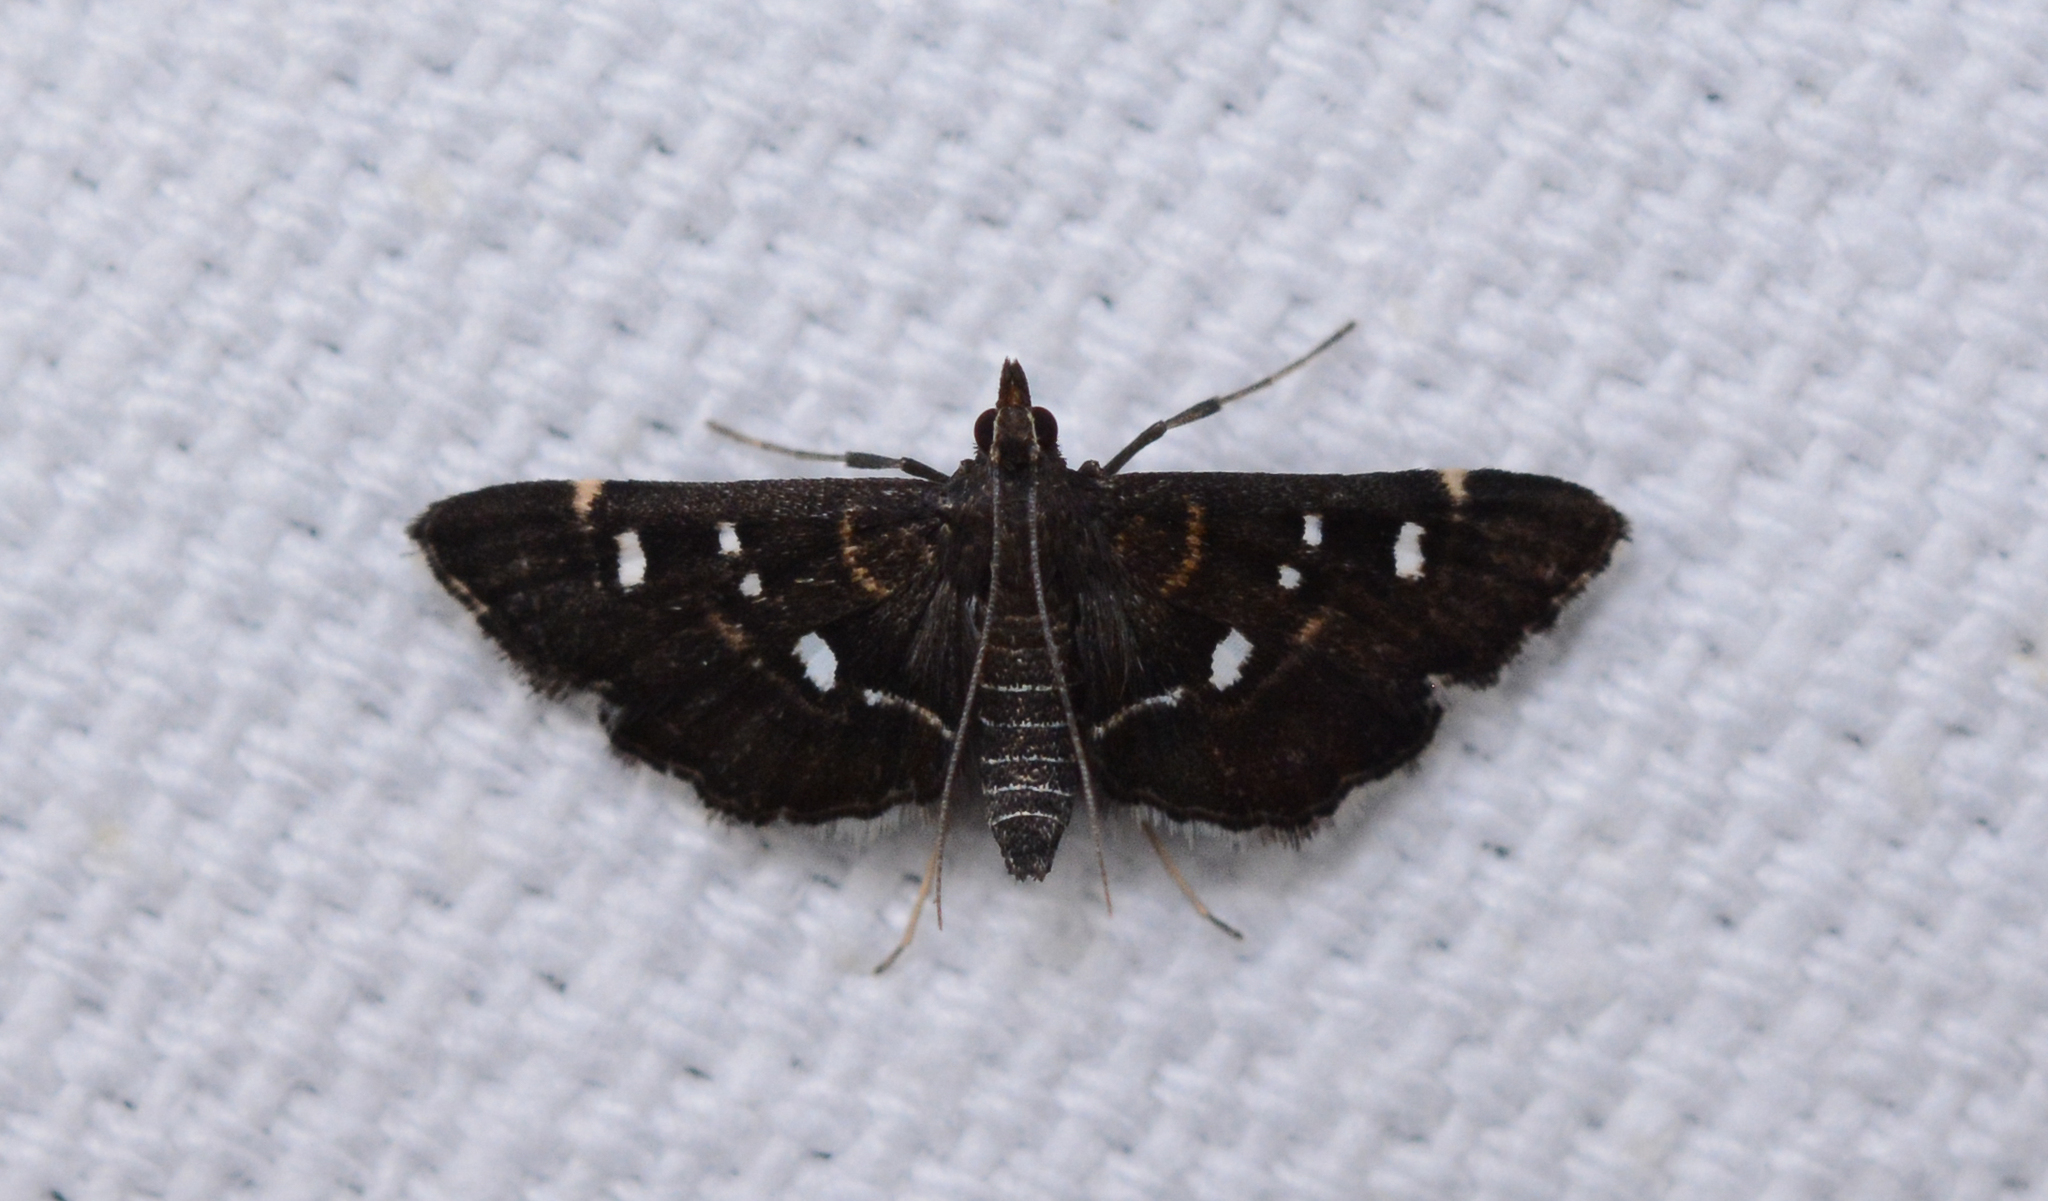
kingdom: Animalia
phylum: Arthropoda
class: Insecta
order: Lepidoptera
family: Crambidae
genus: Diathrausta
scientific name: Diathrausta
